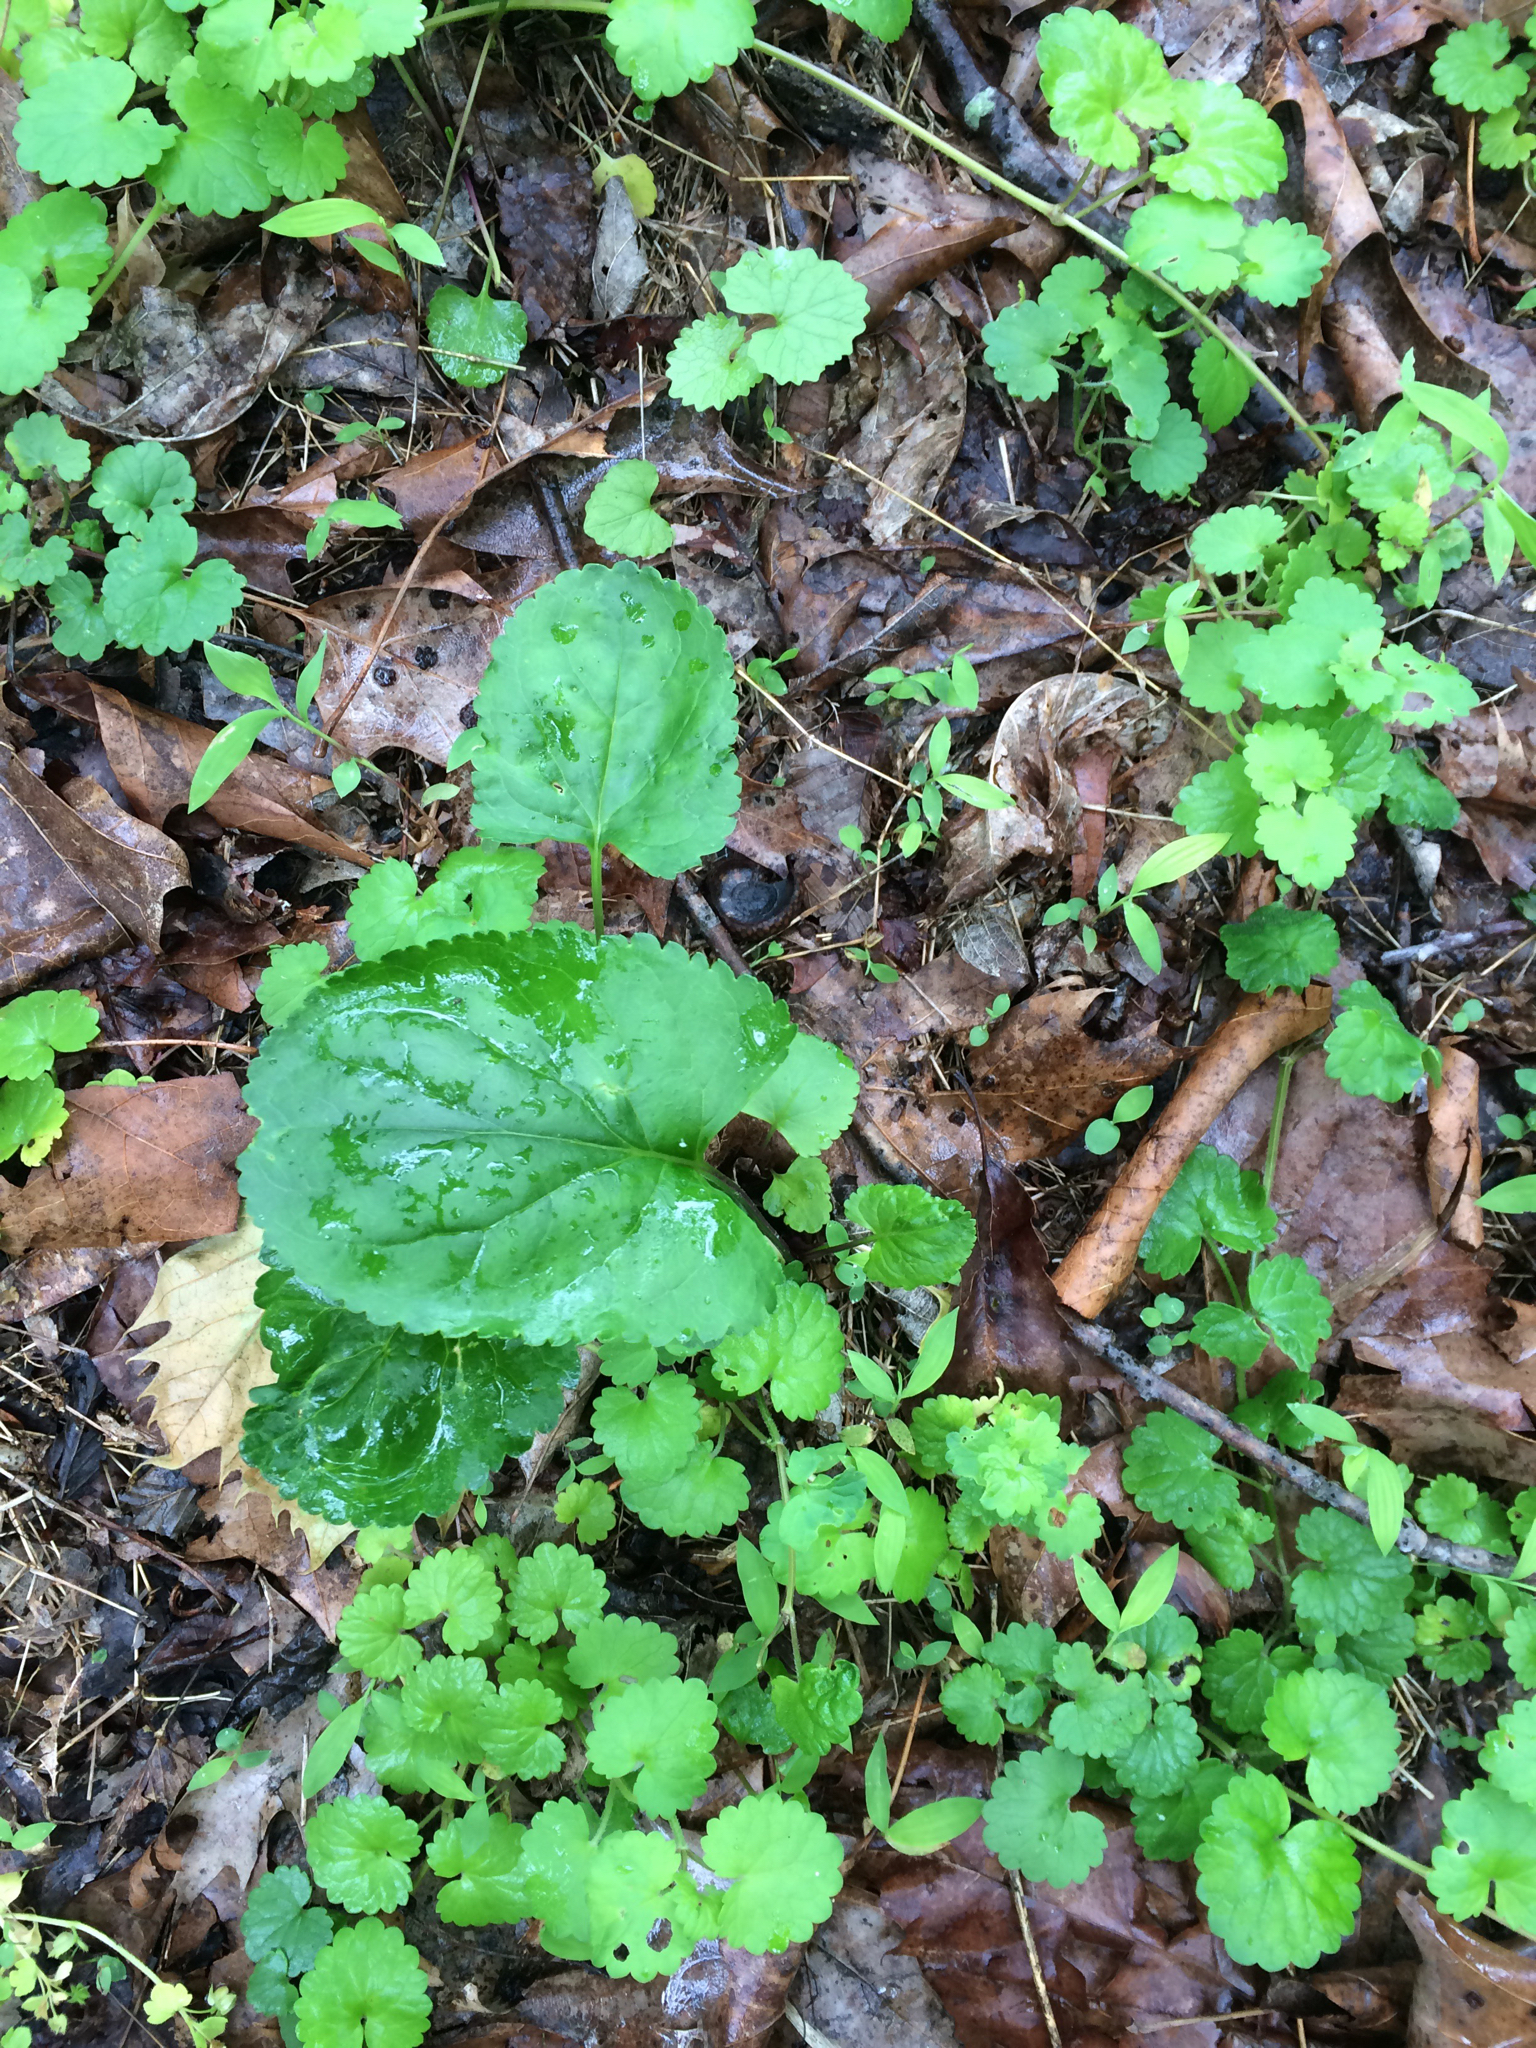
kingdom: Plantae
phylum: Tracheophyta
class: Magnoliopsida
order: Asterales
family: Asteraceae
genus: Packera
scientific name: Packera aurea
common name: Golden groundsel
